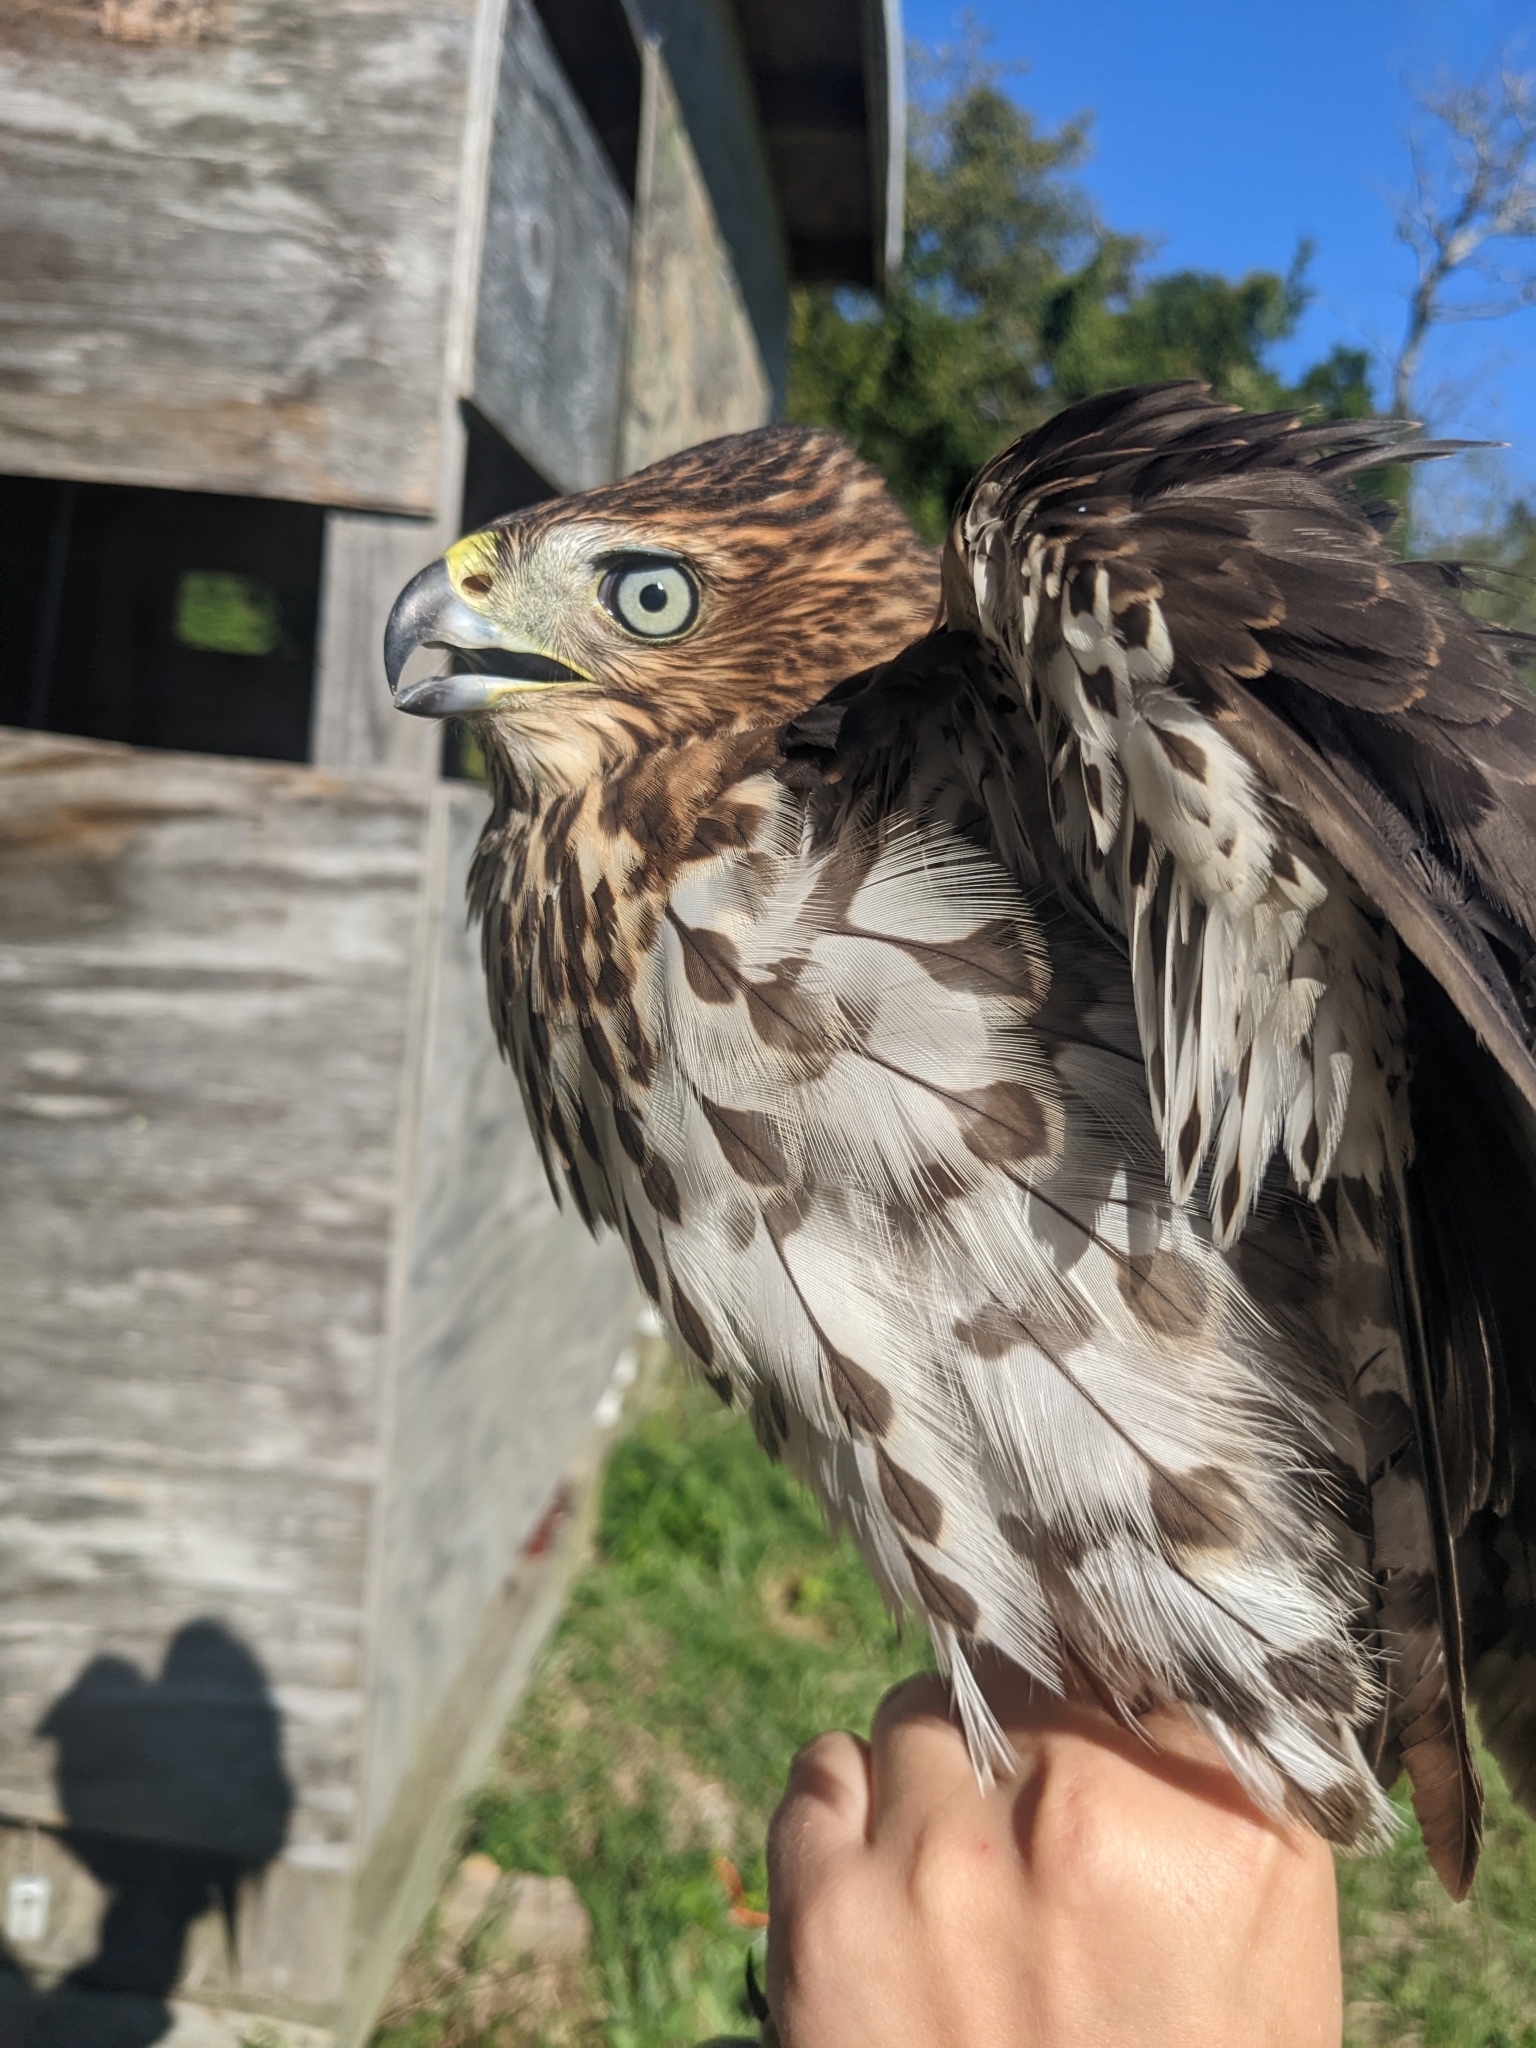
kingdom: Animalia
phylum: Chordata
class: Aves
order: Accipitriformes
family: Accipitridae
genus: Accipiter
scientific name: Accipiter cooperii
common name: Cooper's hawk
